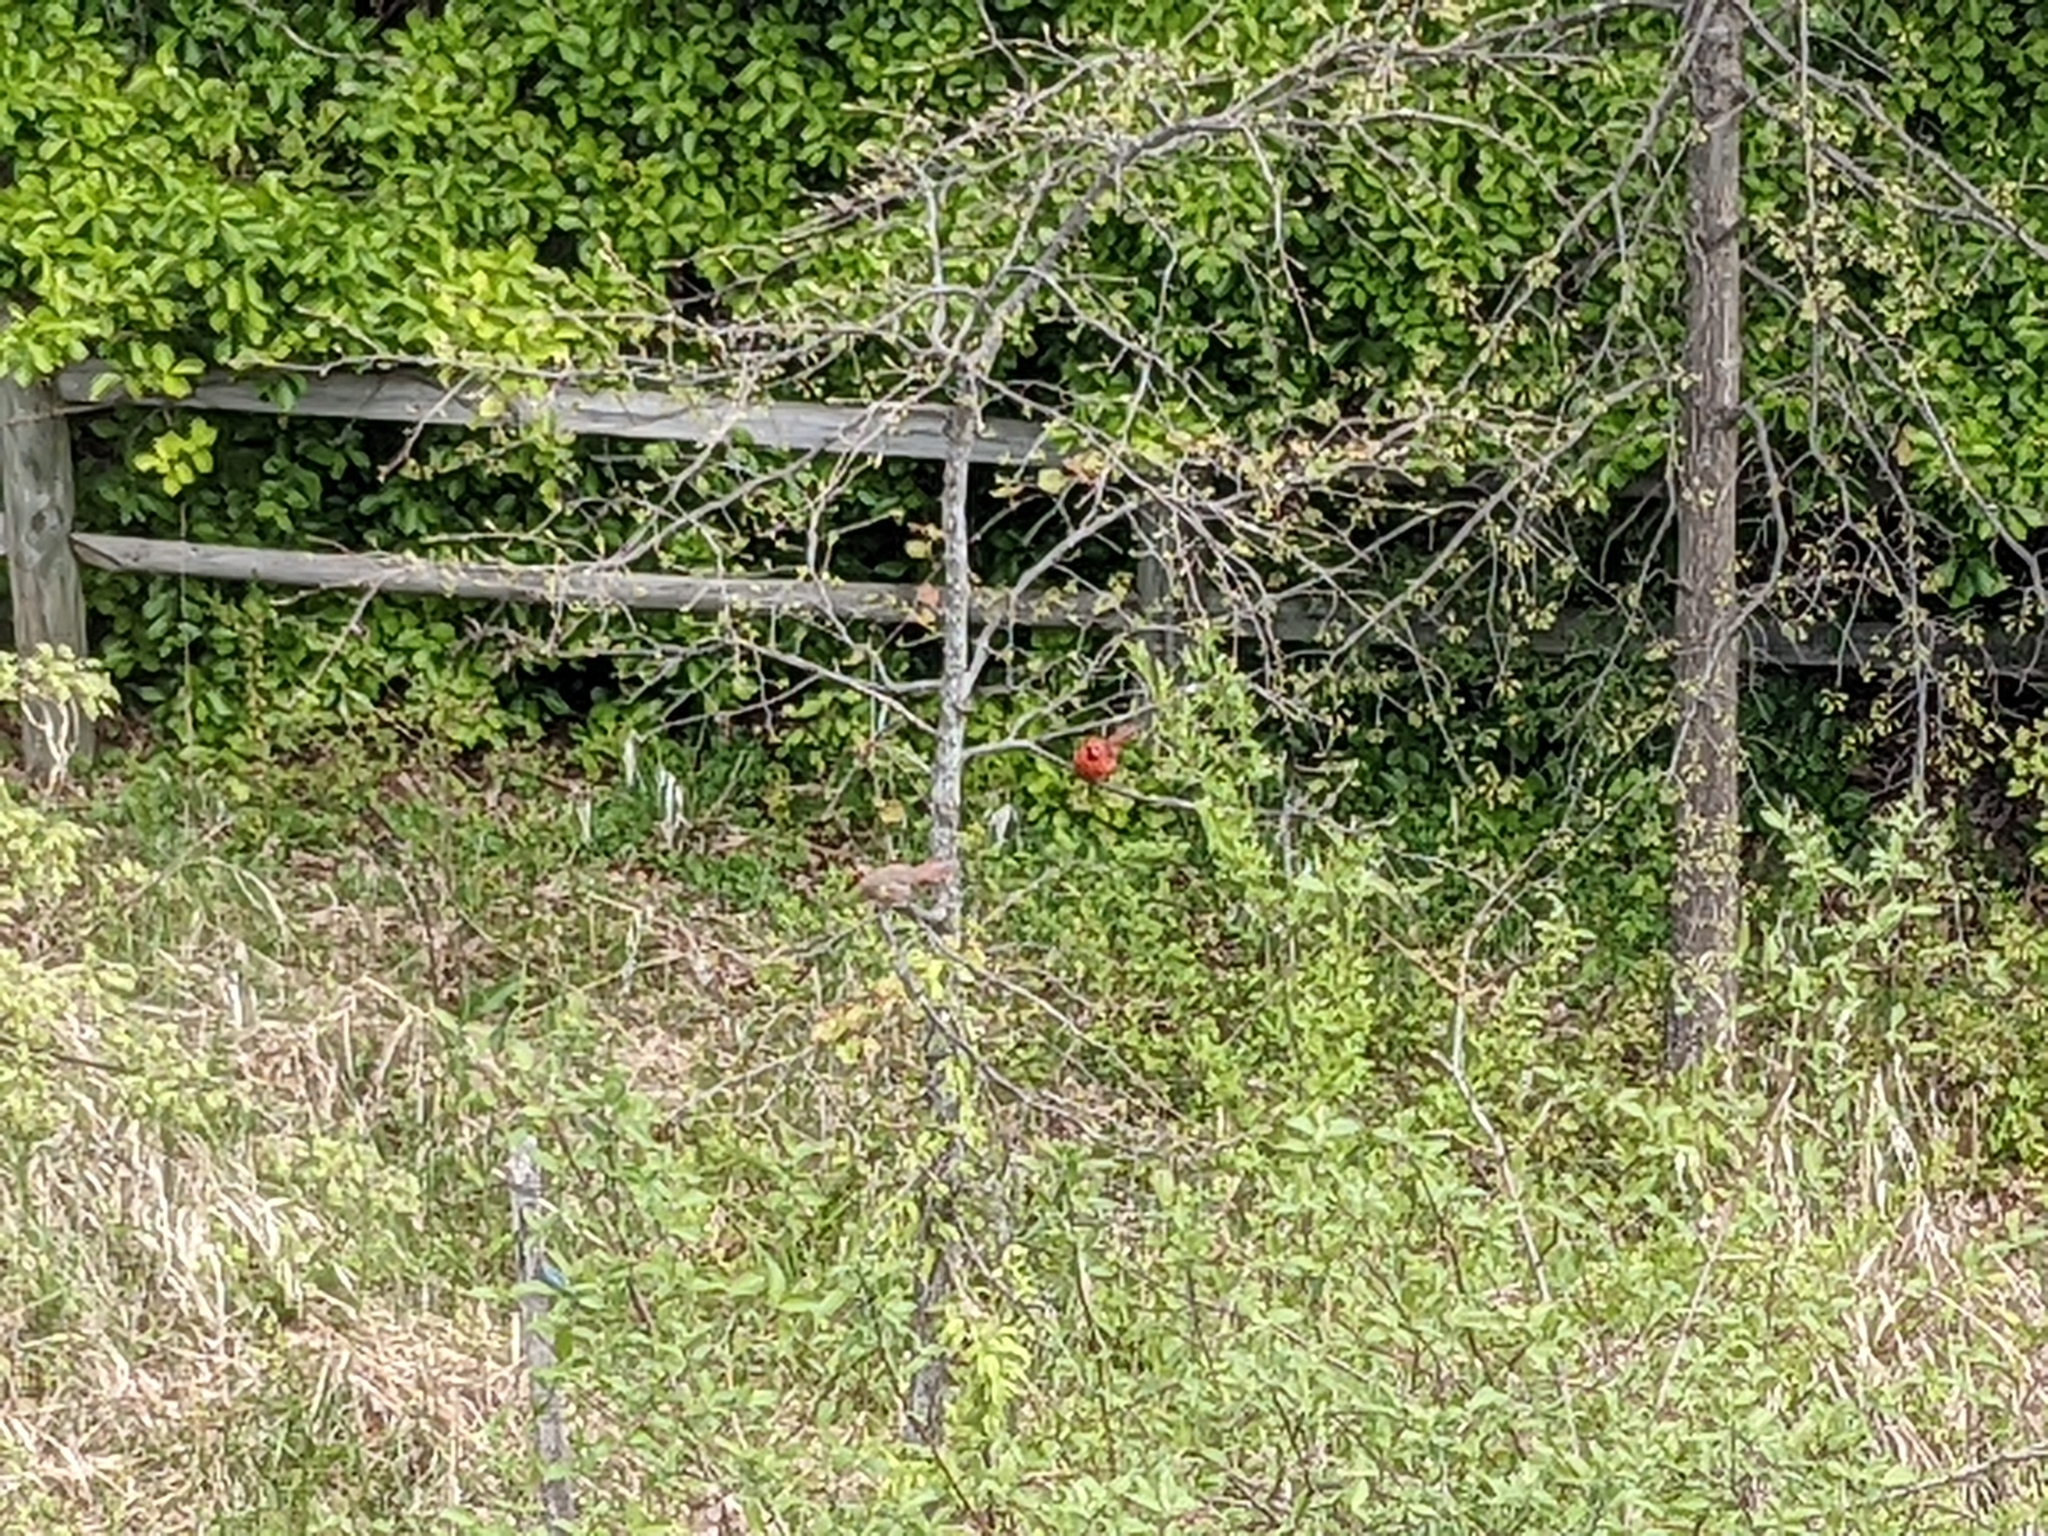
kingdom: Animalia
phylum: Chordata
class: Aves
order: Passeriformes
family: Cardinalidae
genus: Cardinalis
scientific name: Cardinalis cardinalis
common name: Northern cardinal
